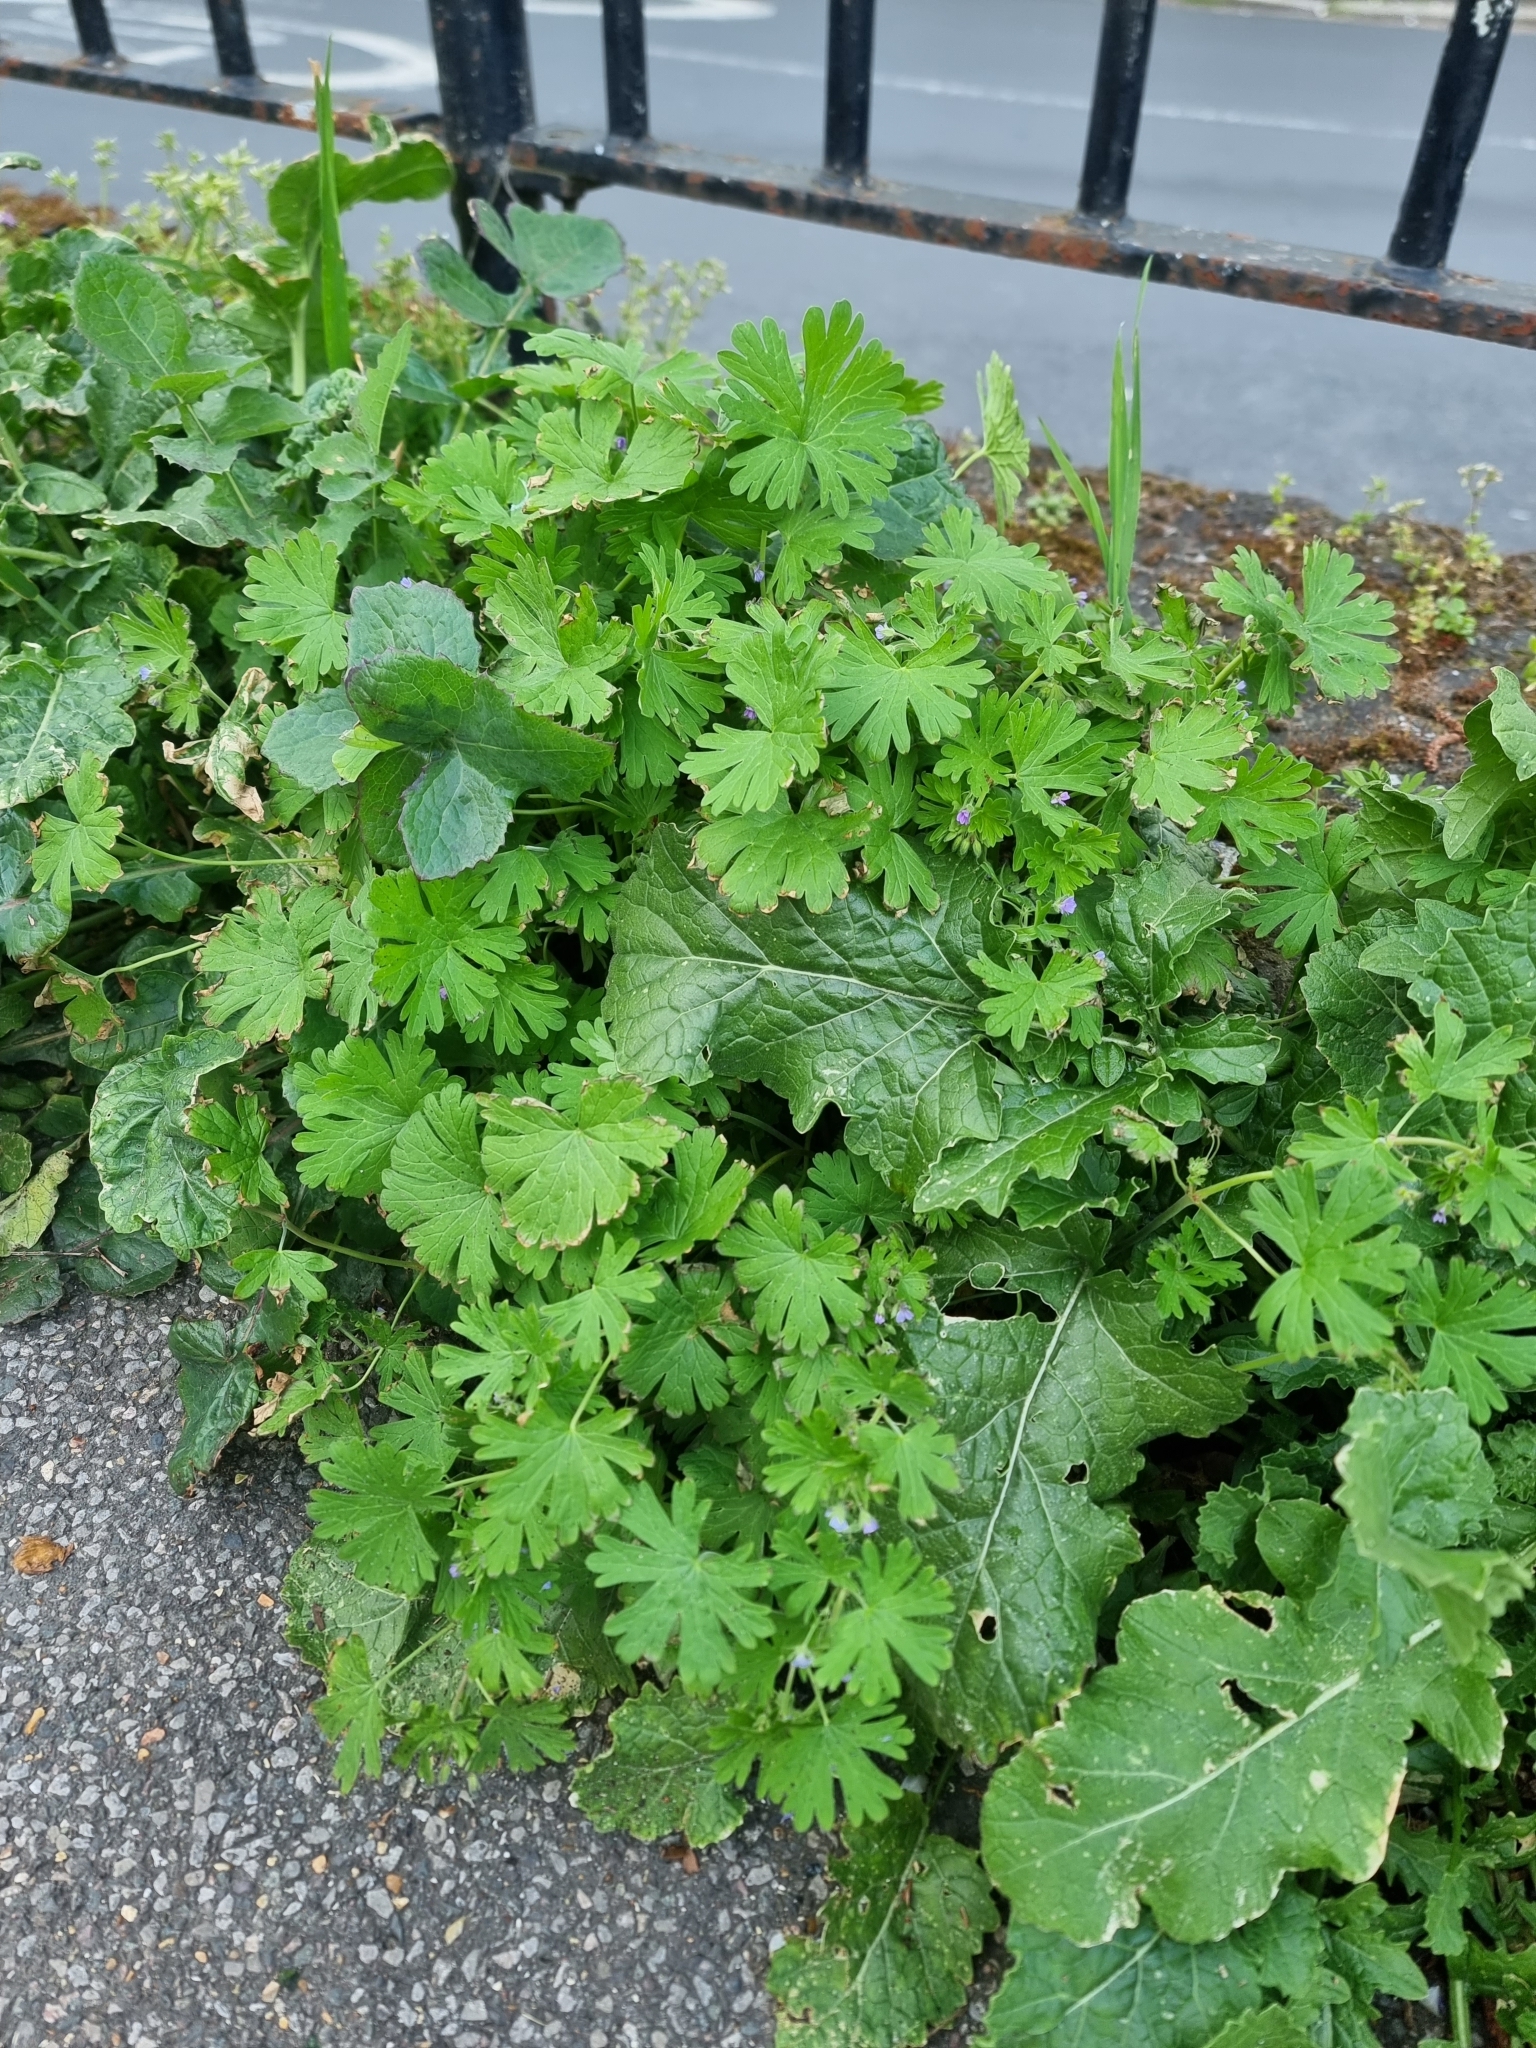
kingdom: Plantae
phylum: Tracheophyta
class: Magnoliopsida
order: Geraniales
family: Geraniaceae
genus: Geranium
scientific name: Geranium pusillum
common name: Small geranium
